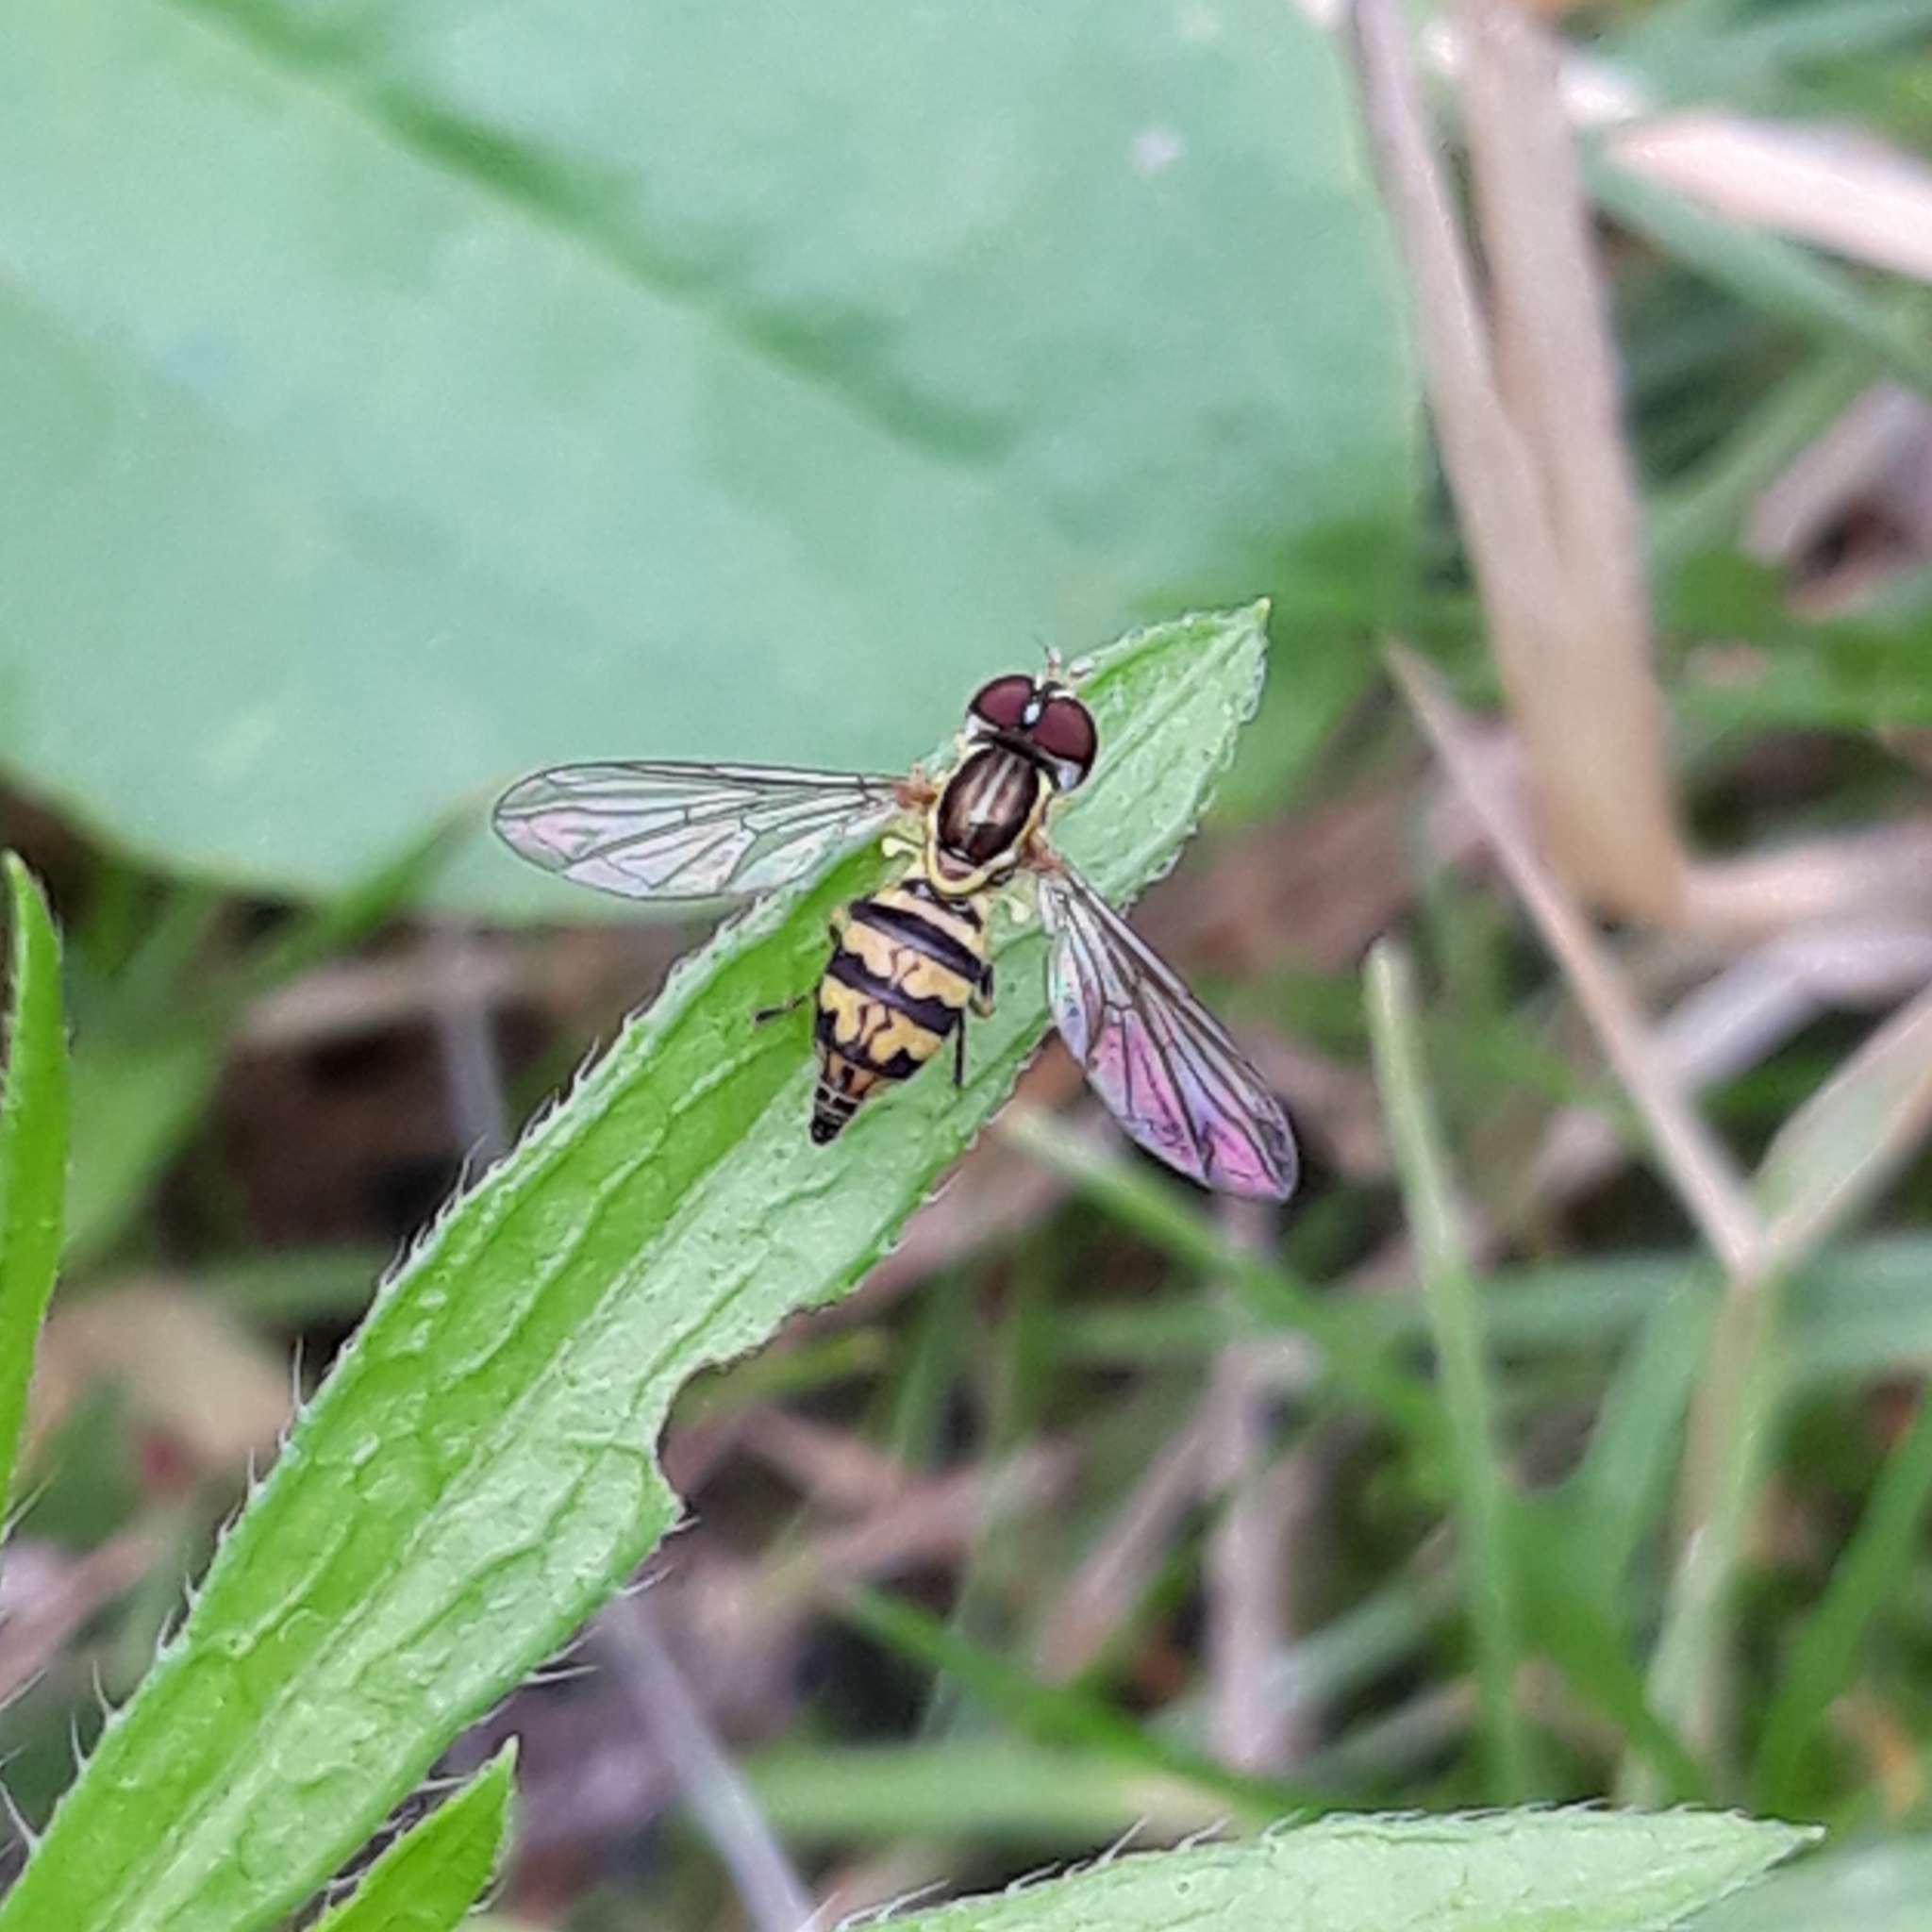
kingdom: Animalia
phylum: Arthropoda
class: Insecta
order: Diptera
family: Syrphidae
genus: Toxomerus
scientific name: Toxomerus geminatus
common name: Eastern calligrapher
